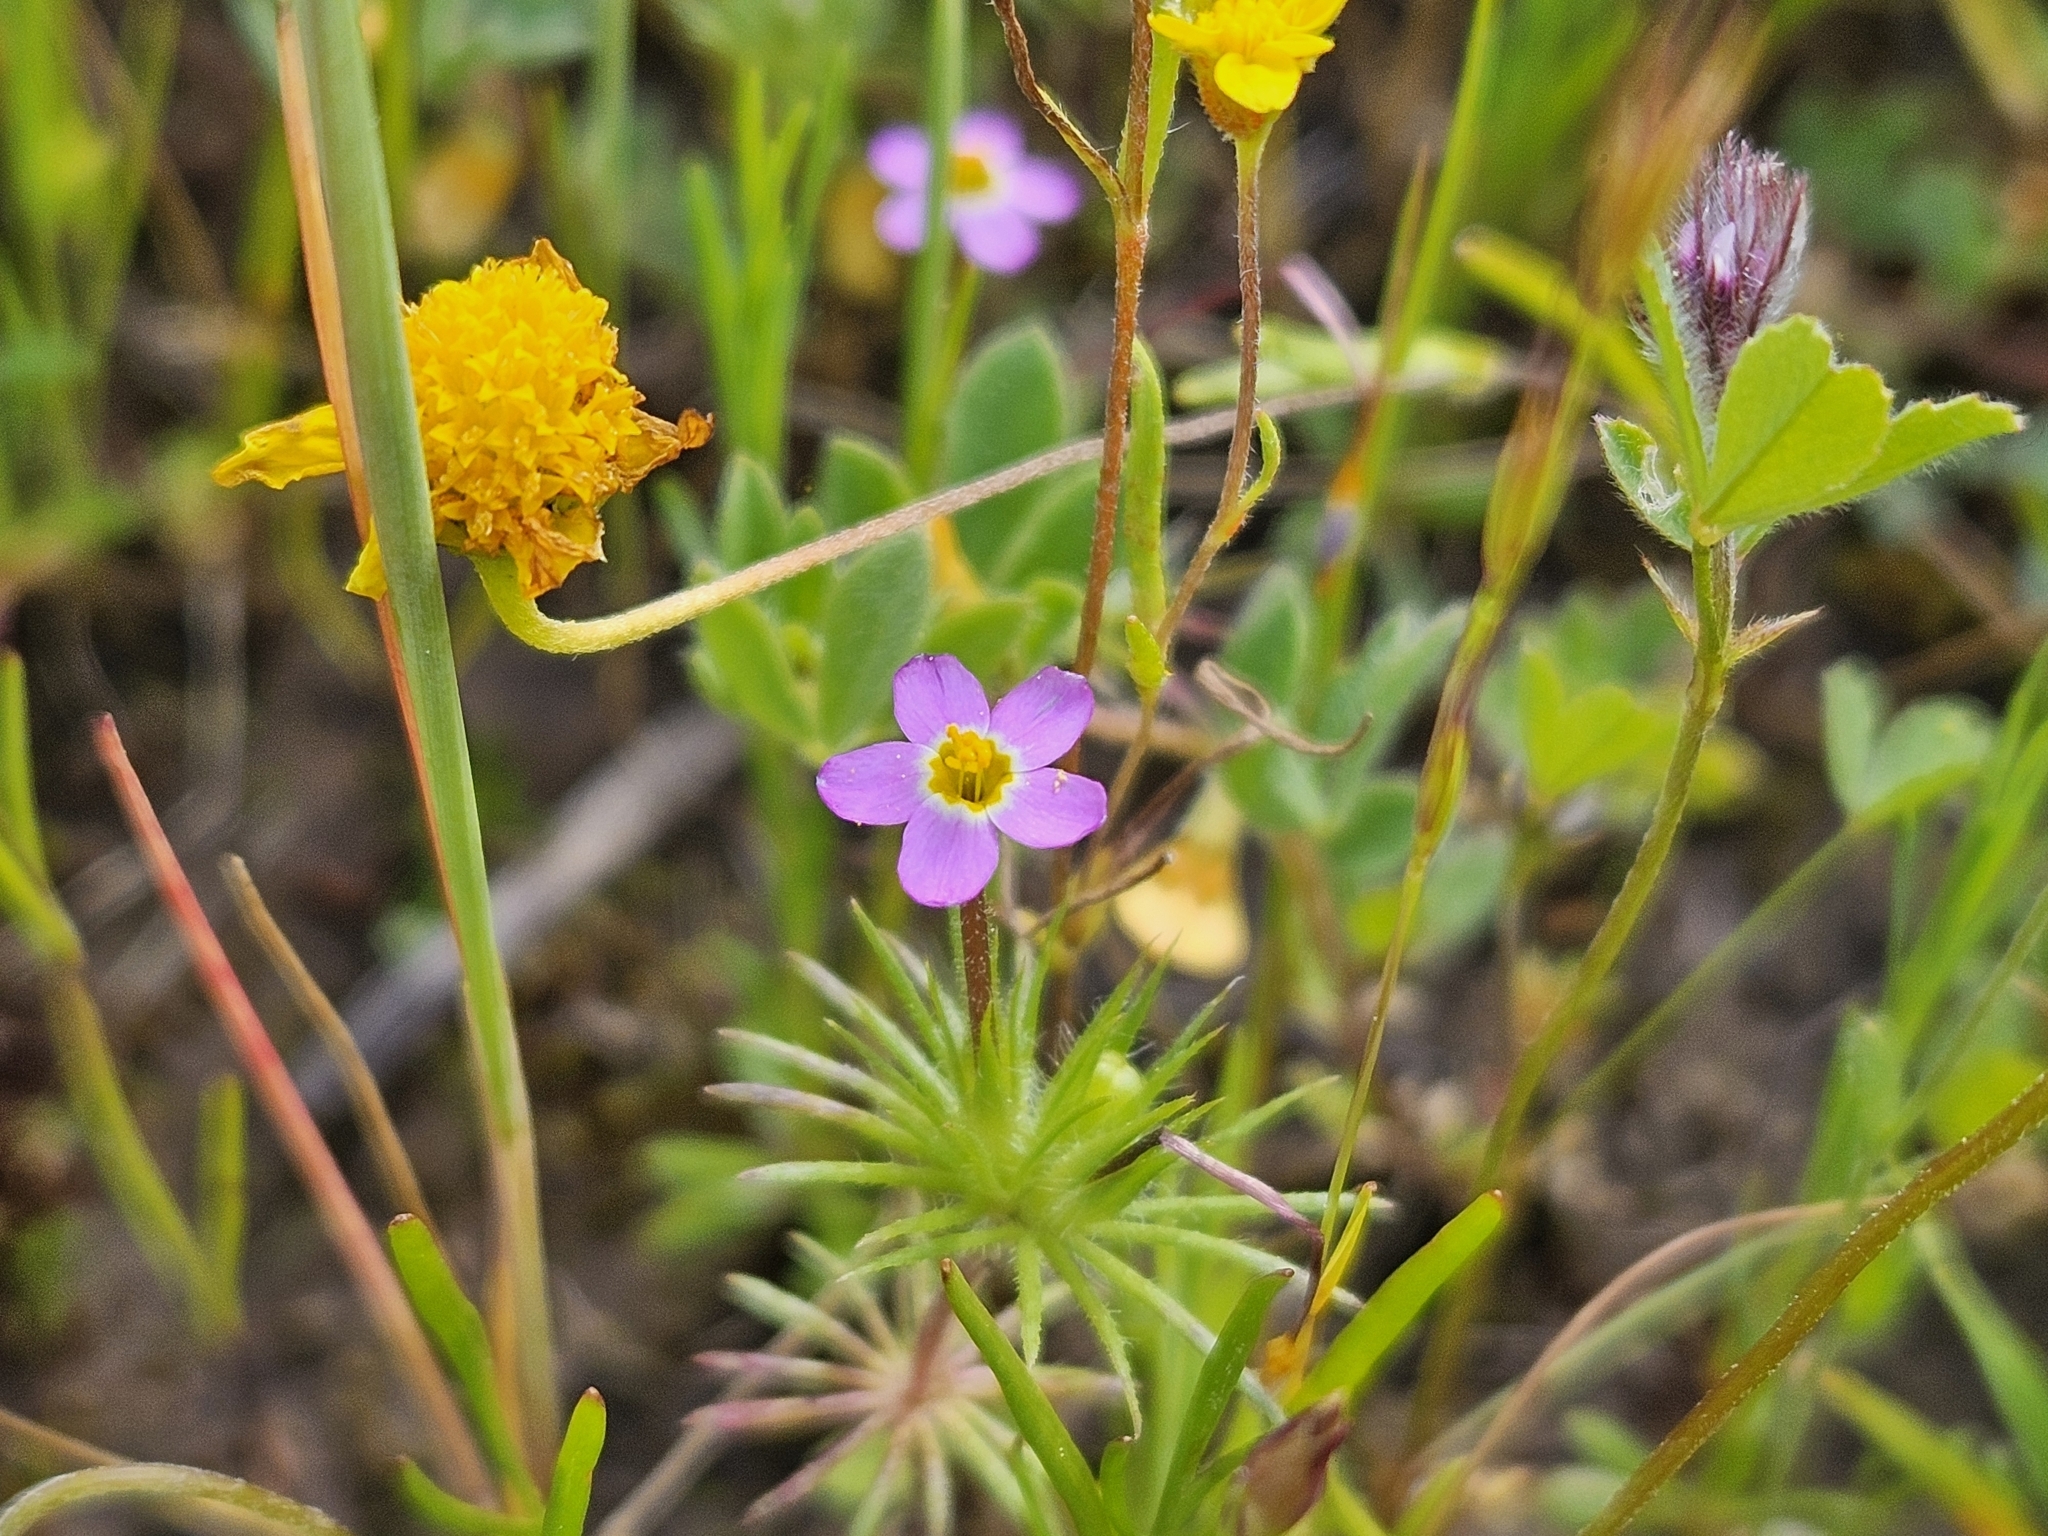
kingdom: Plantae
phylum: Tracheophyta
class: Magnoliopsida
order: Ericales
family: Polemoniaceae
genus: Leptosiphon
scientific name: Leptosiphon bicolor
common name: True babystars
